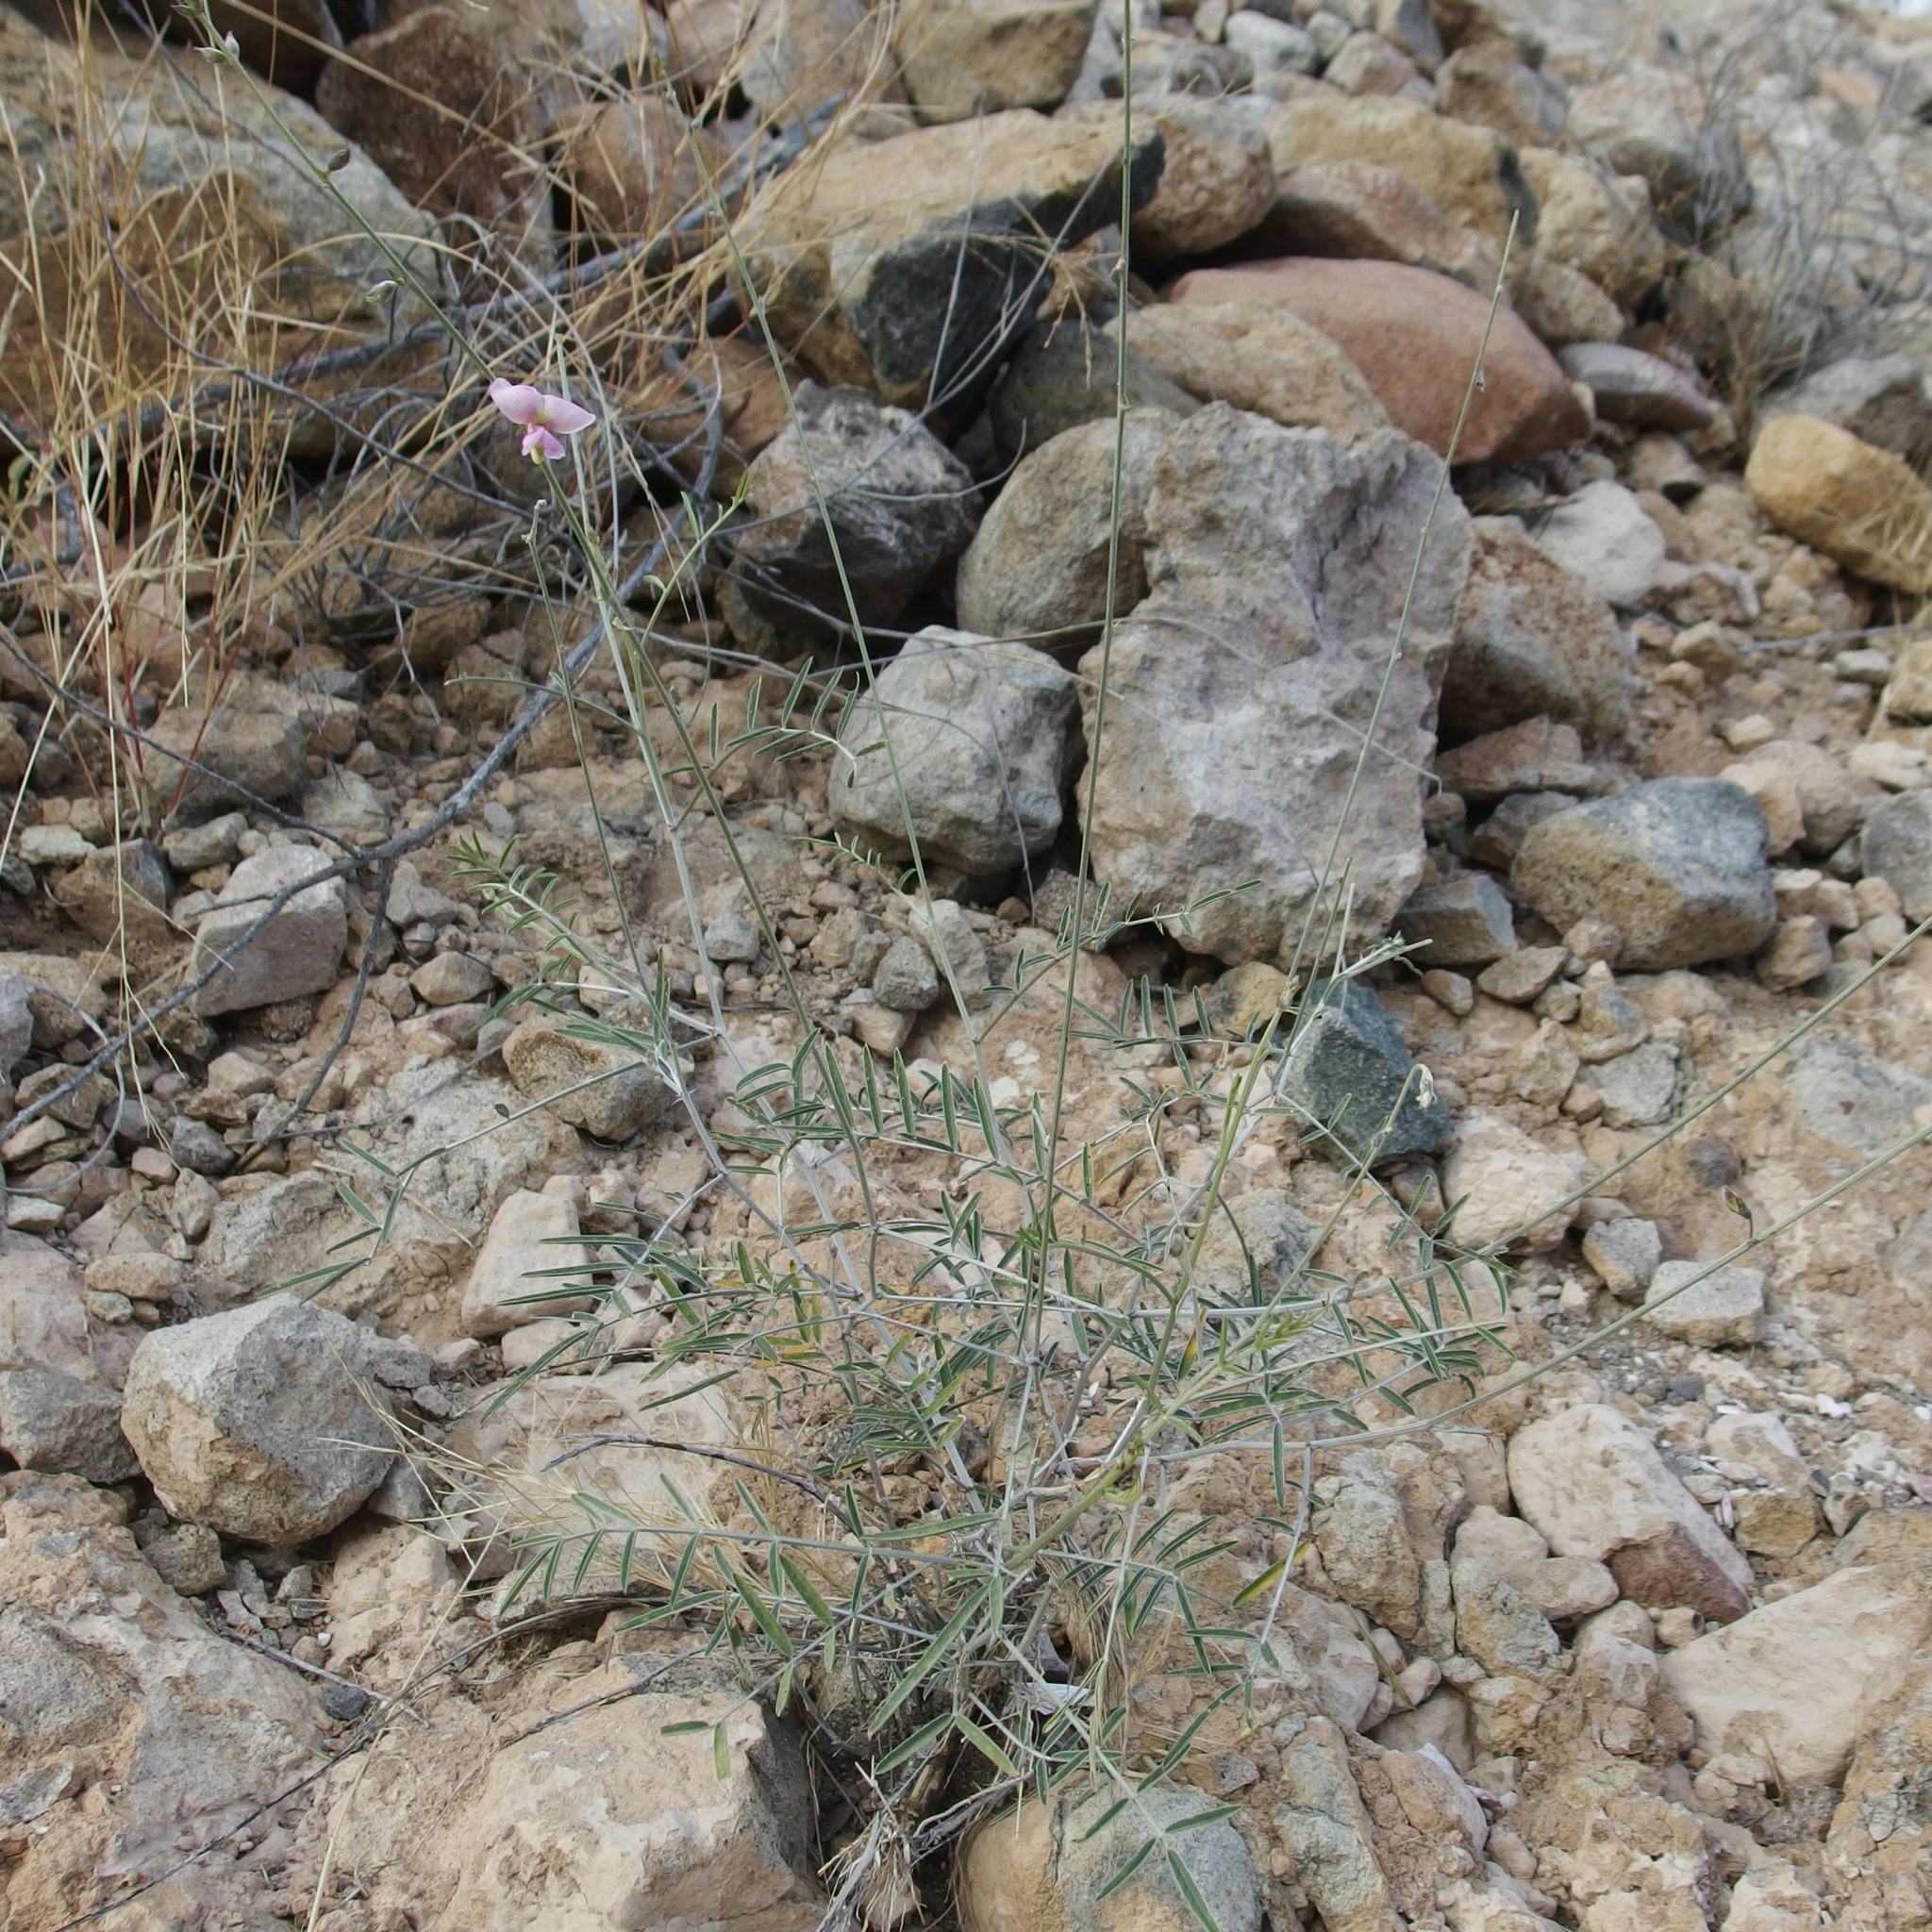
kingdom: Plantae
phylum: Tracheophyta
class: Magnoliopsida
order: Fabales
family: Fabaceae
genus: Tephrosia
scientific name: Tephrosia palmeri
